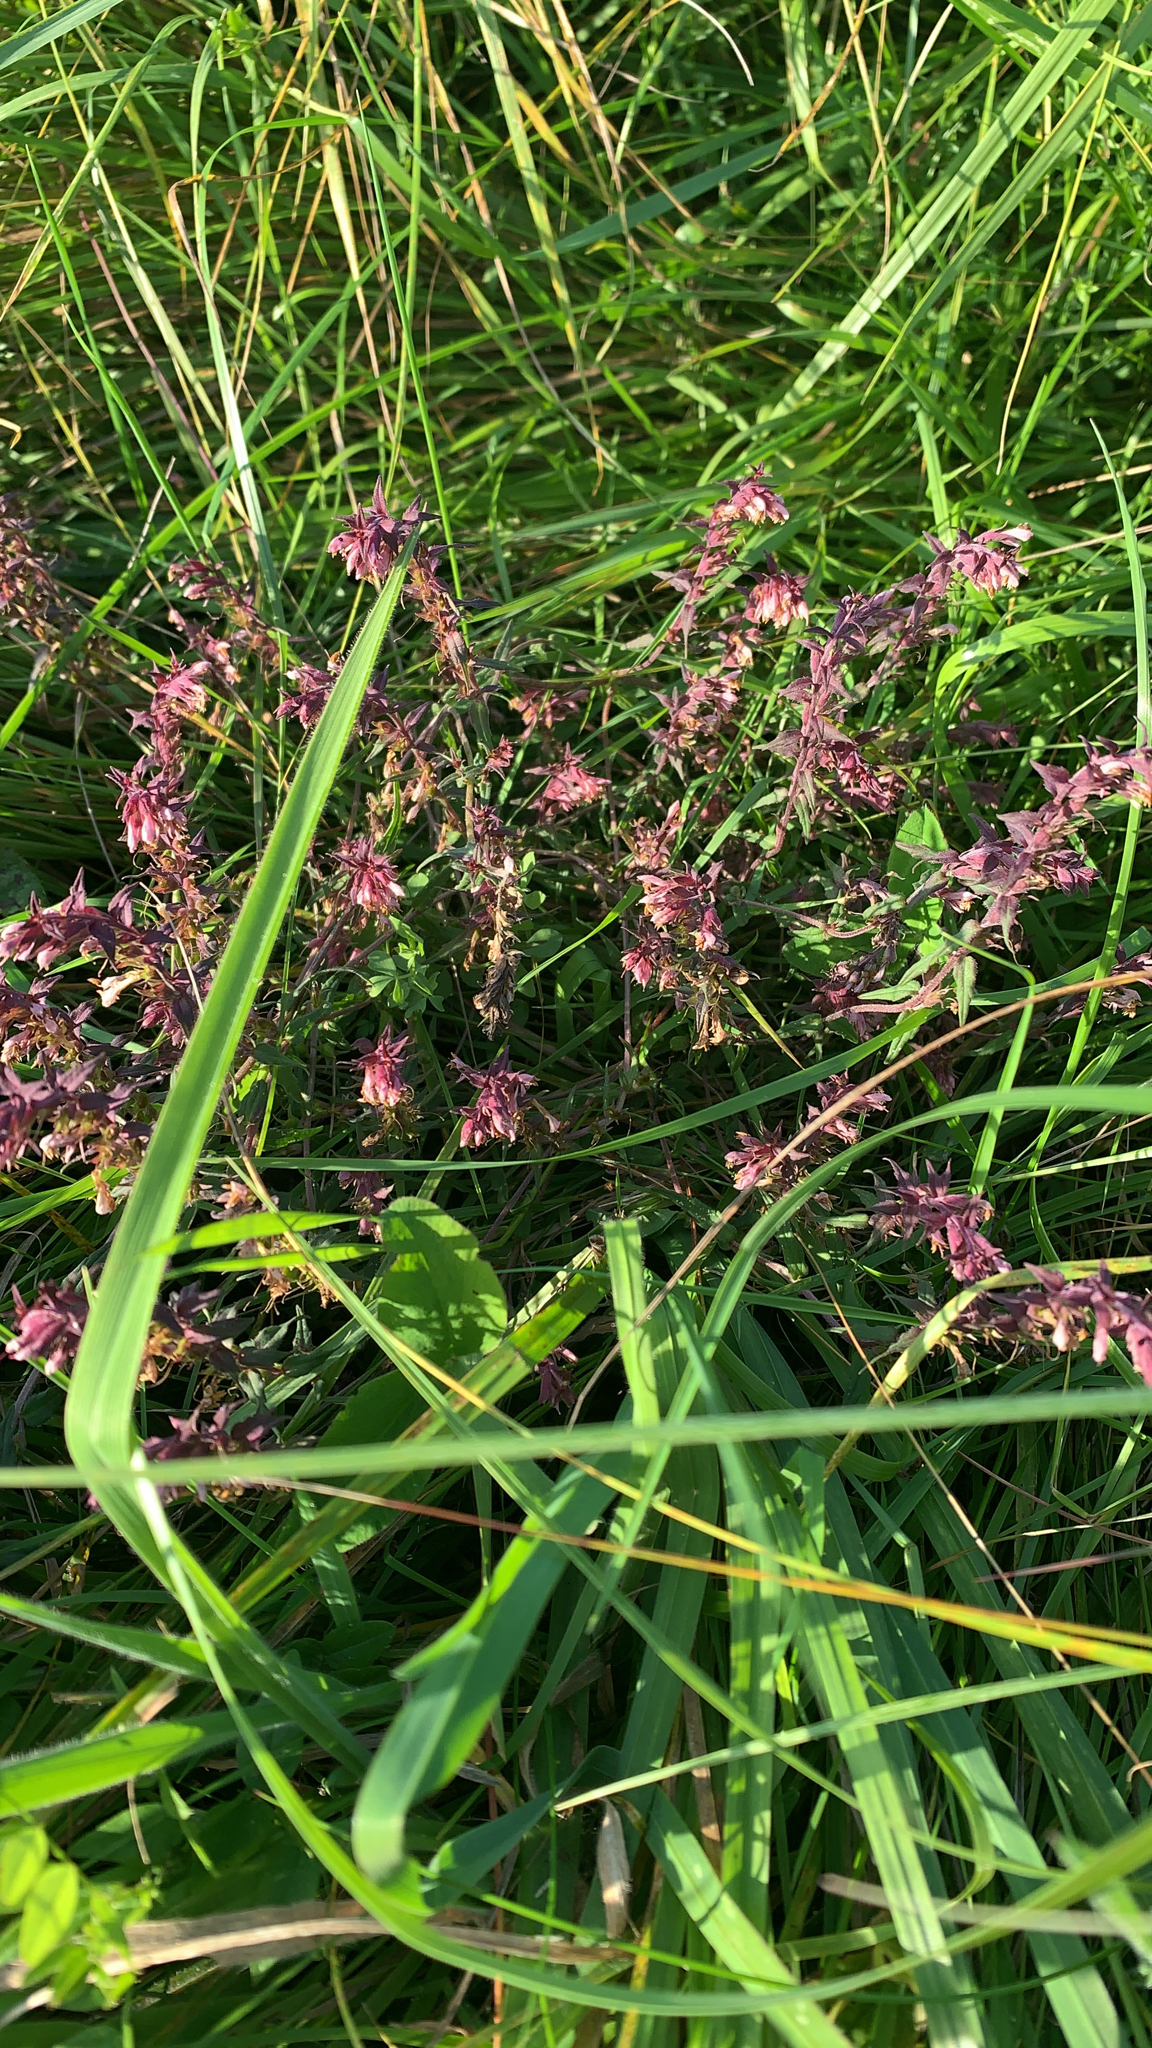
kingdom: Plantae
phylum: Tracheophyta
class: Magnoliopsida
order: Lamiales
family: Orobanchaceae
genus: Odontites
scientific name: Odontites vulgaris
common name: Broomrape
